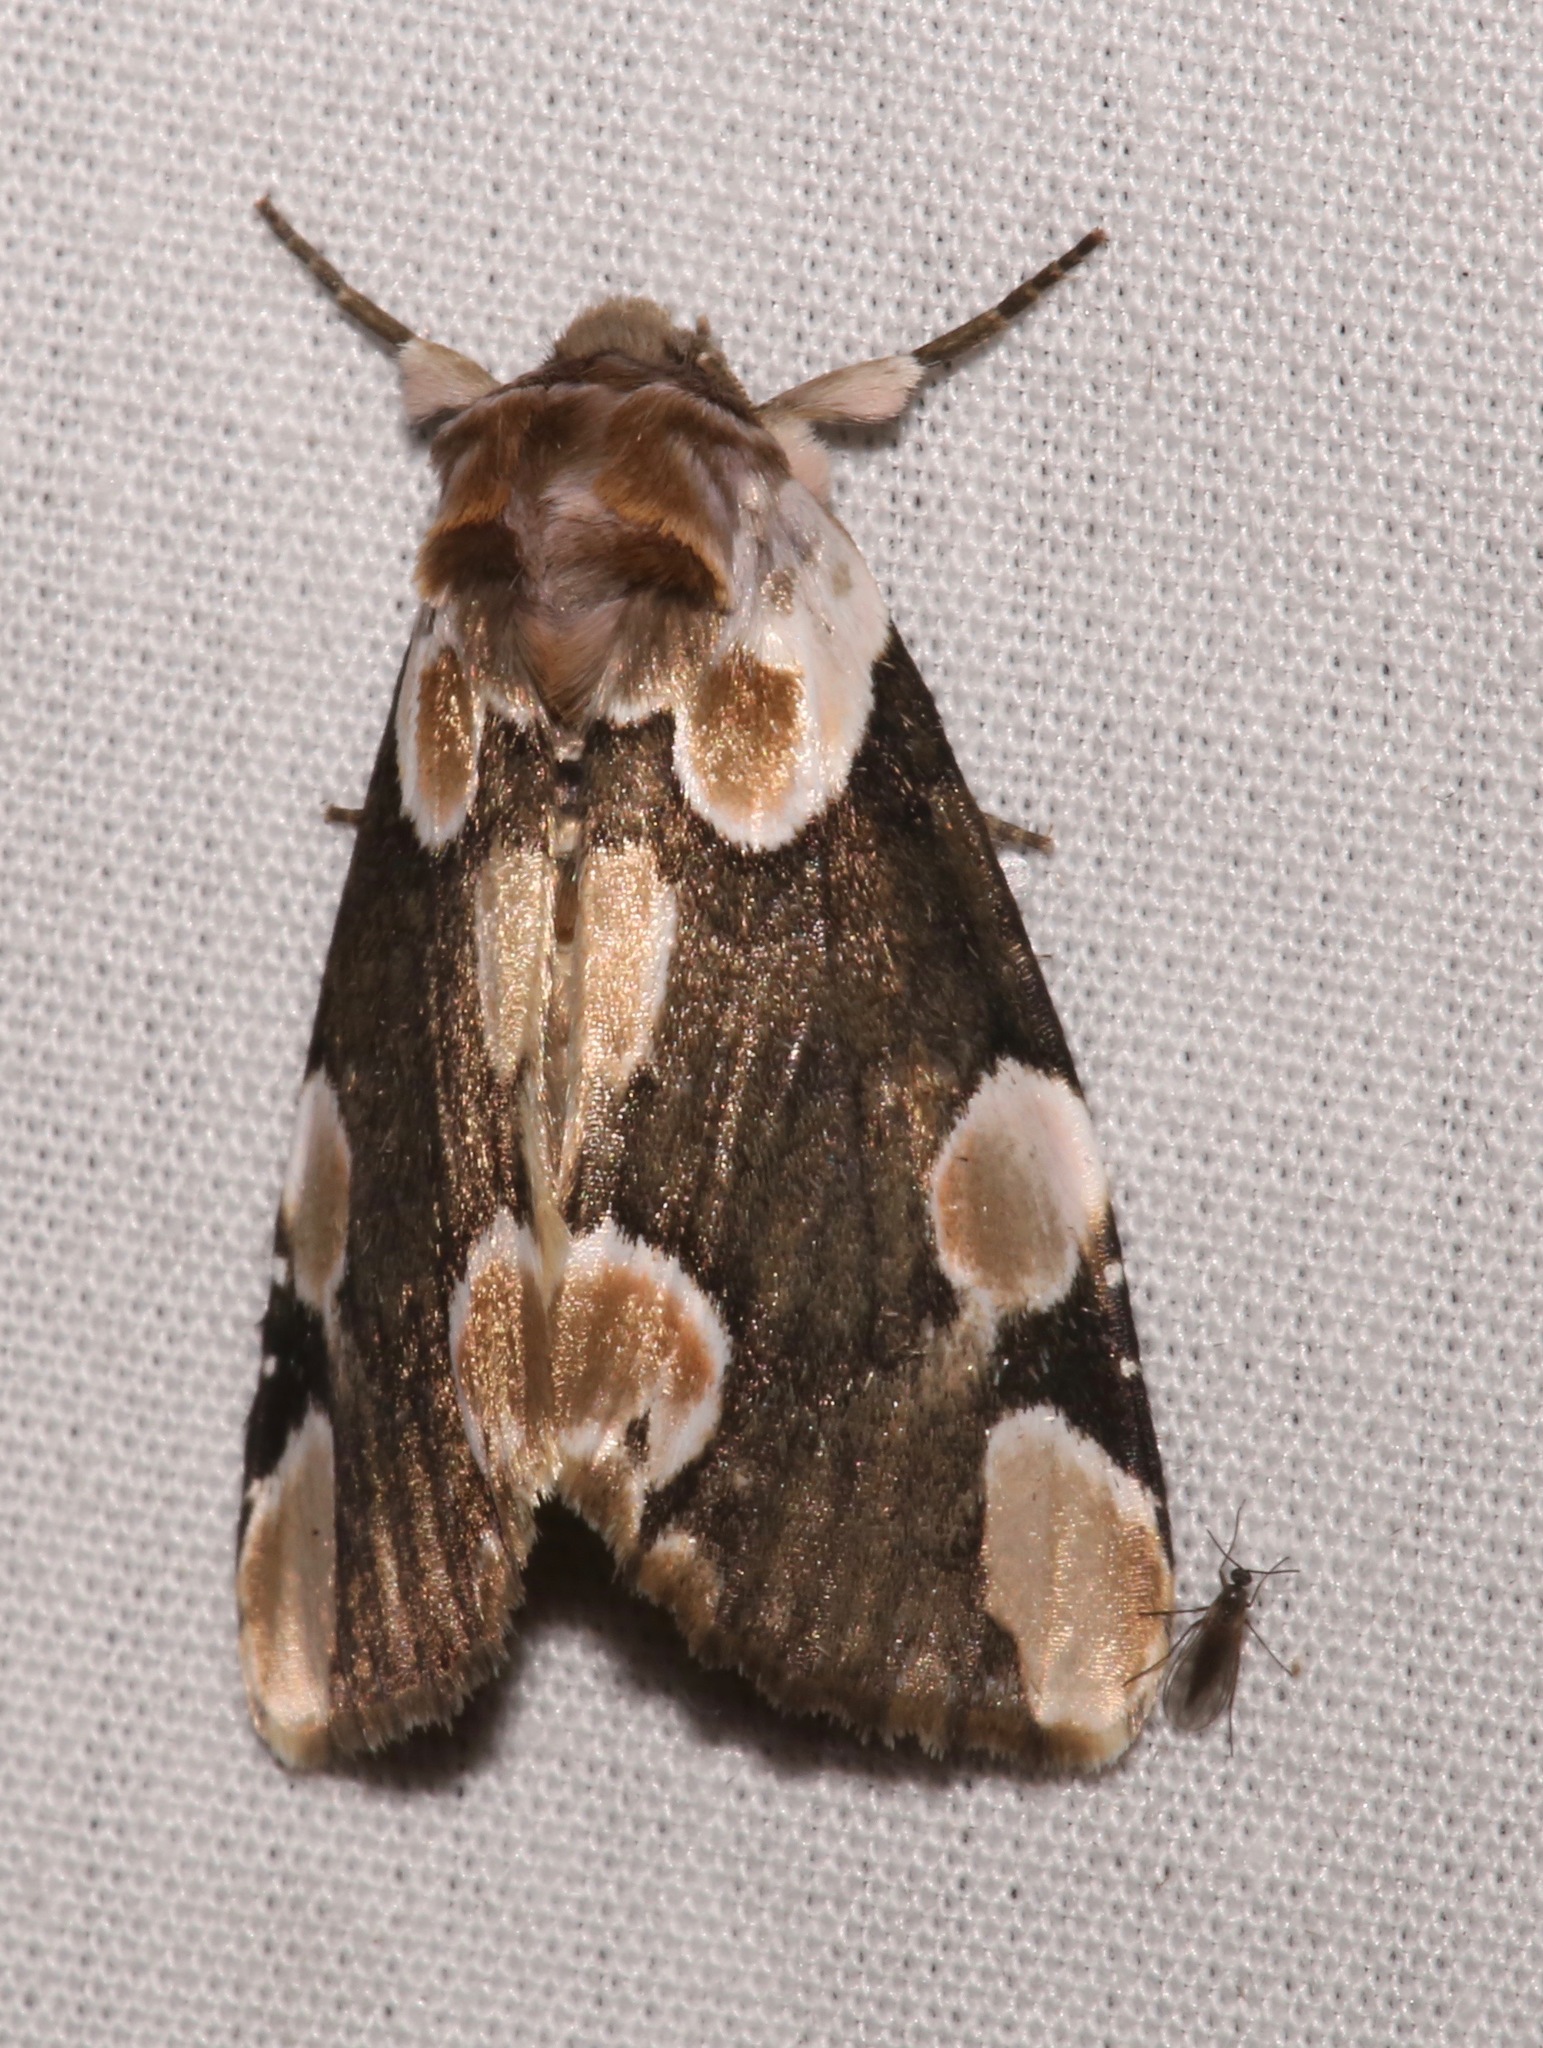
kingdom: Animalia
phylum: Arthropoda
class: Insecta
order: Lepidoptera
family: Drepanidae
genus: Thyatira
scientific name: Thyatira mexicana
